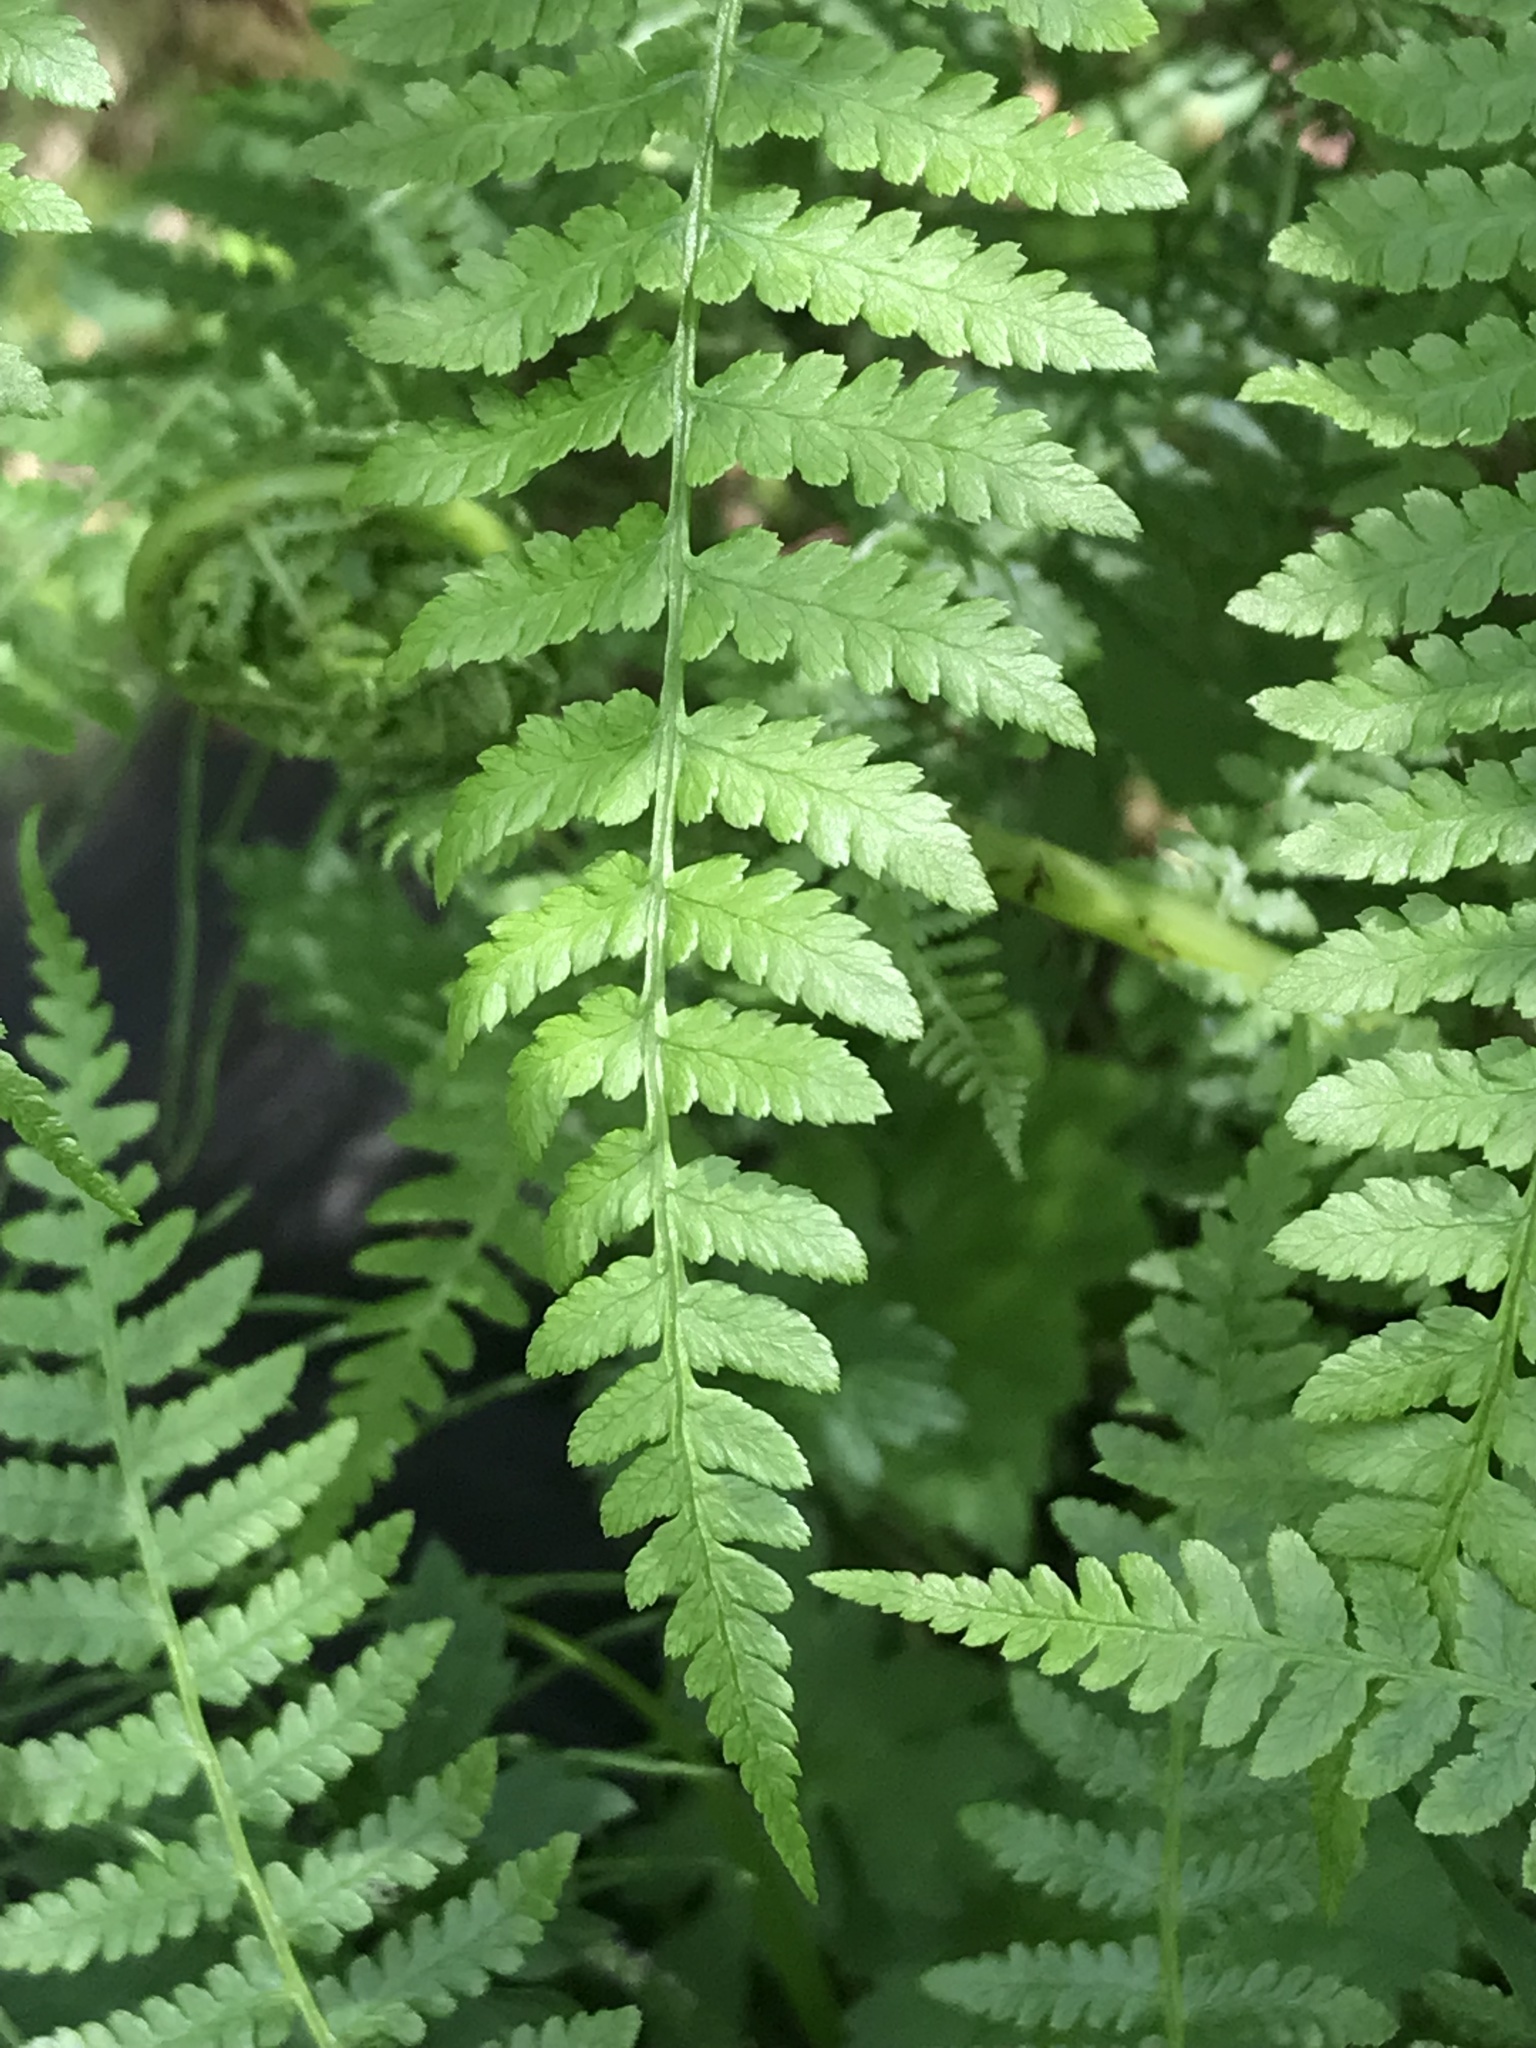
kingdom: Plantae
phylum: Tracheophyta
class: Polypodiopsida
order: Polypodiales
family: Athyriaceae
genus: Athyrium
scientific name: Athyrium filix-femina
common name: Lady fern
